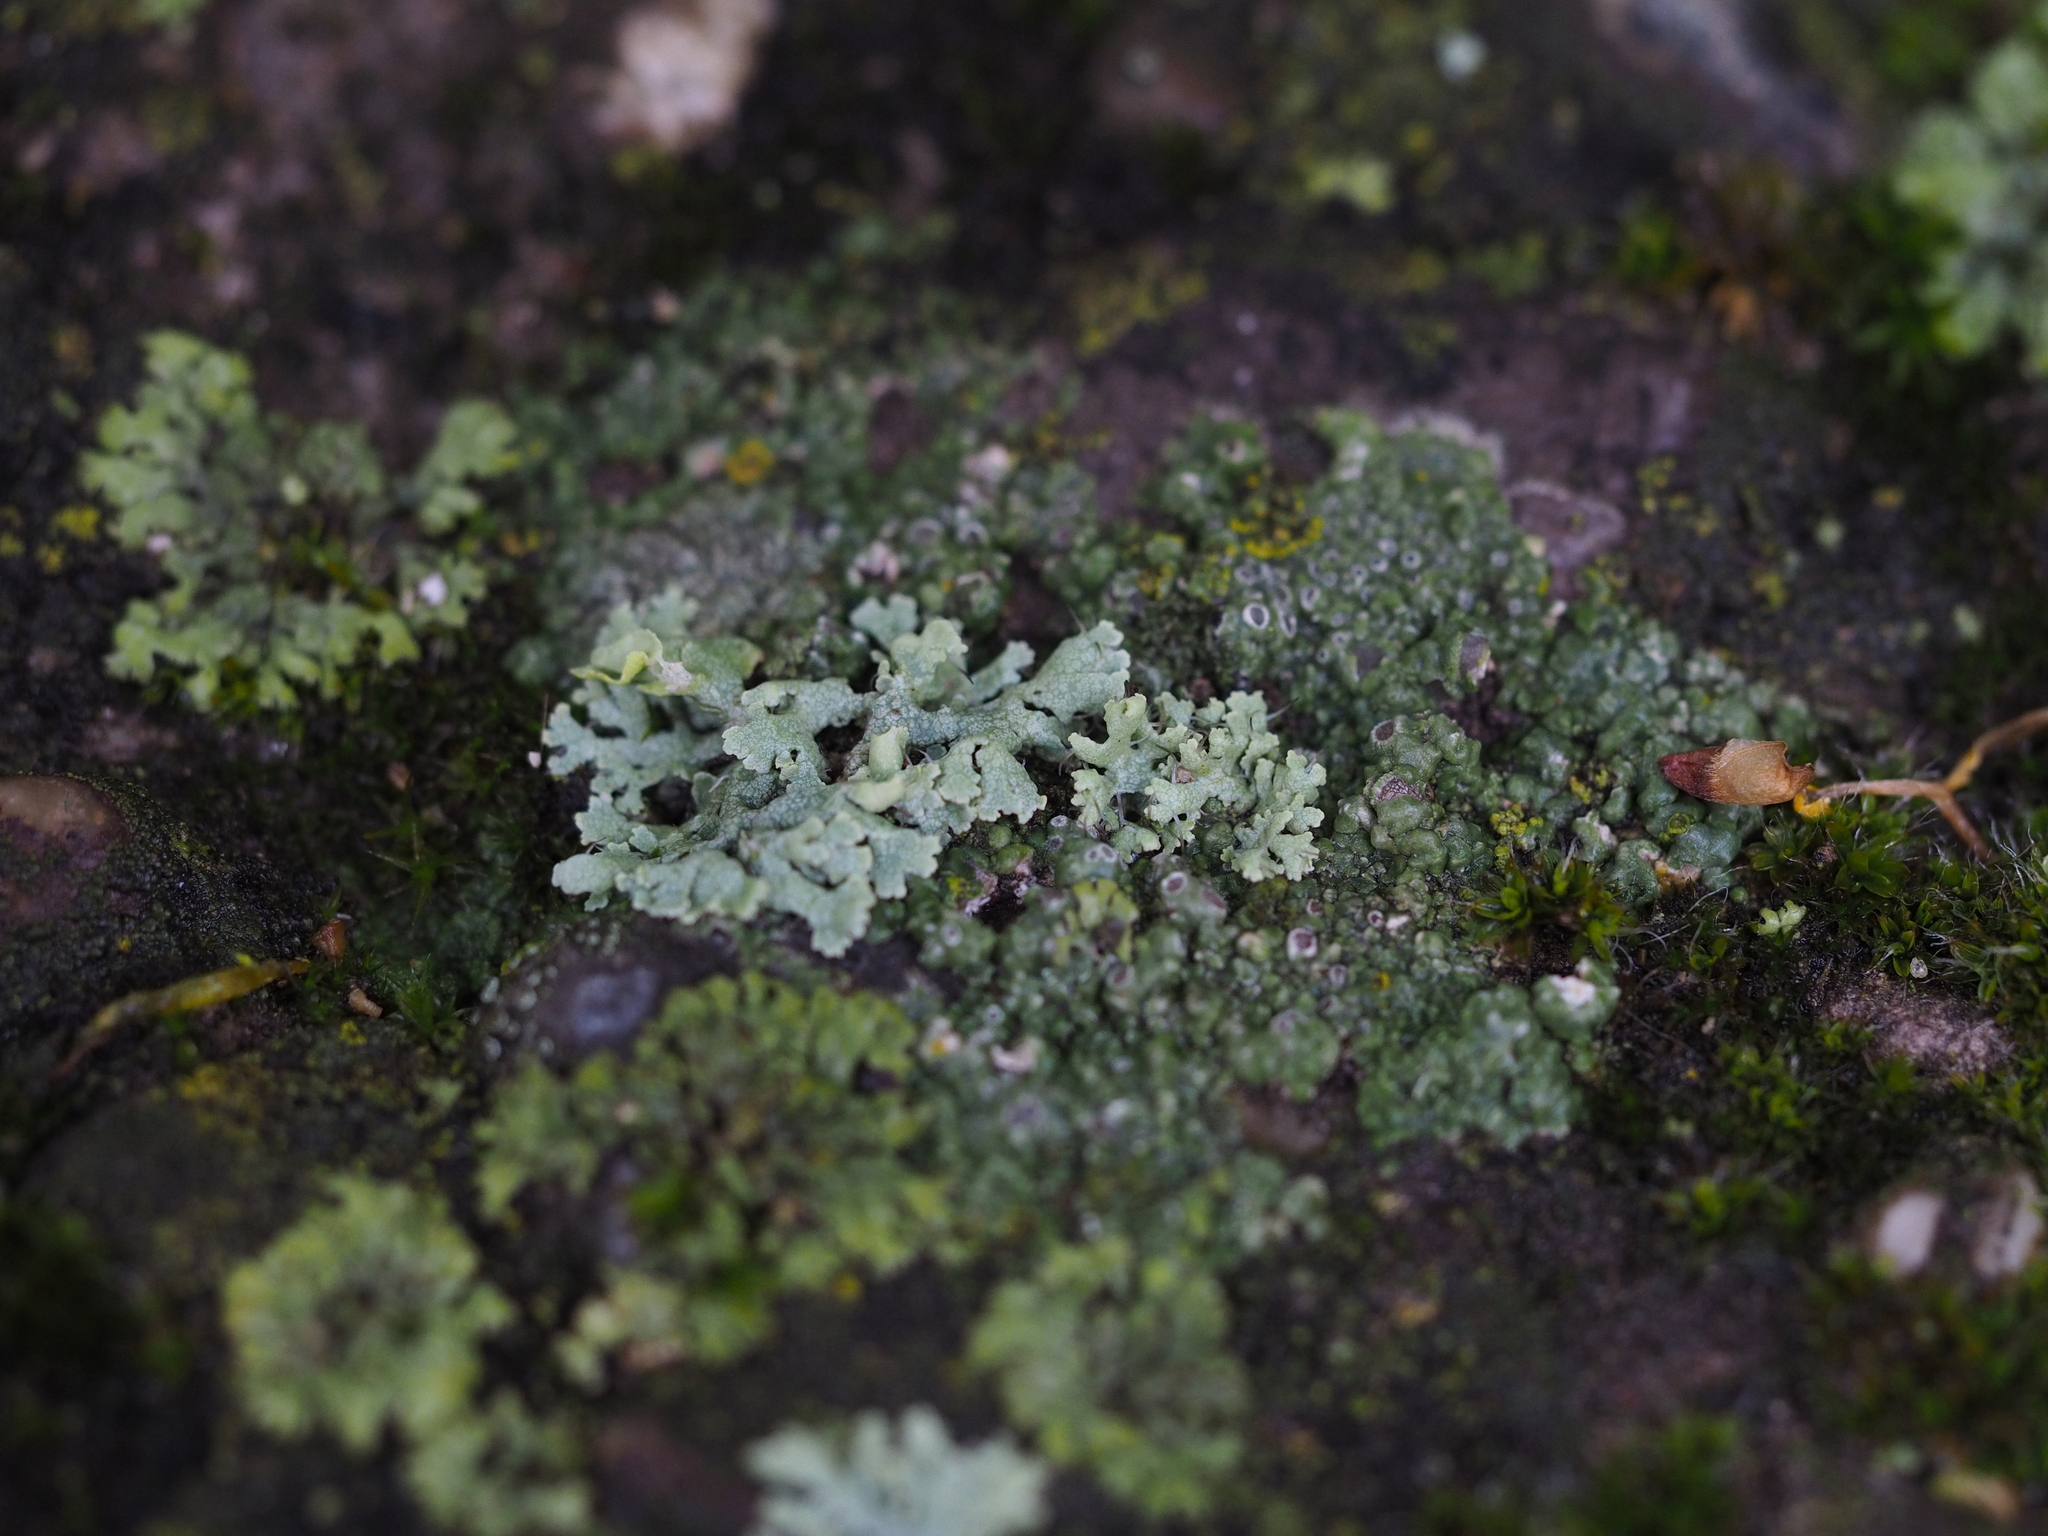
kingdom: Fungi
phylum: Ascomycota
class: Lecanoromycetes
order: Caliciales
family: Physciaceae
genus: Physcia
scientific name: Physcia adscendens
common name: Hooded rosette lichen
